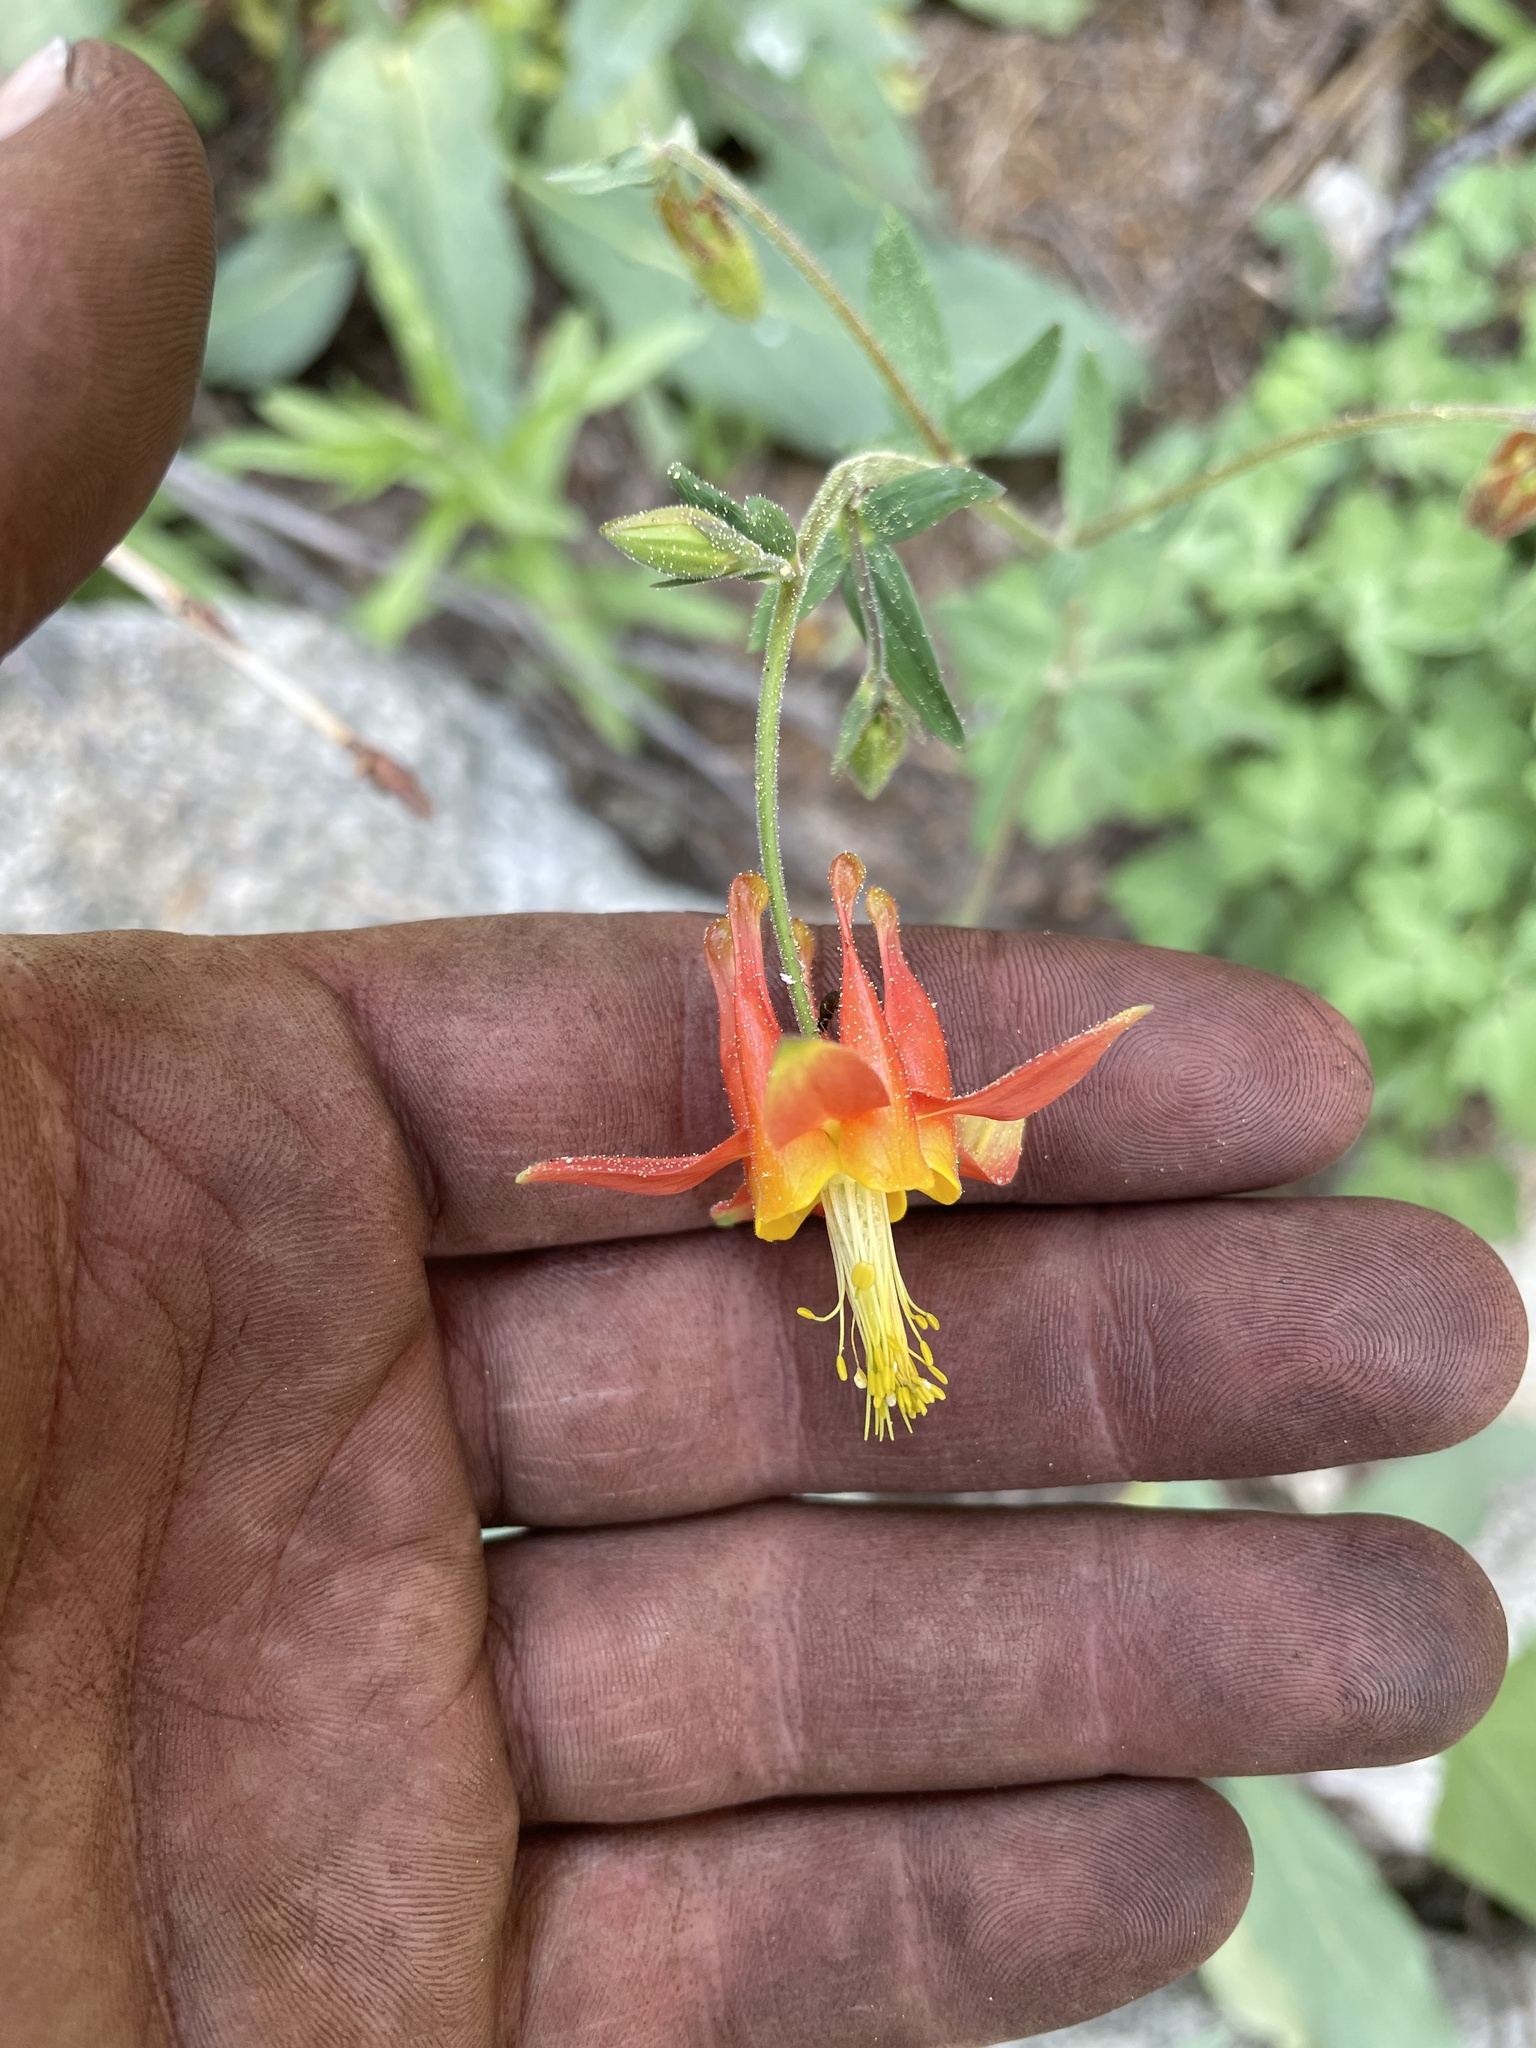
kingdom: Plantae
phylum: Tracheophyta
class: Magnoliopsida
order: Ranunculales
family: Ranunculaceae
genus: Aquilegia
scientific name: Aquilegia formosa
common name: Sitka columbine
